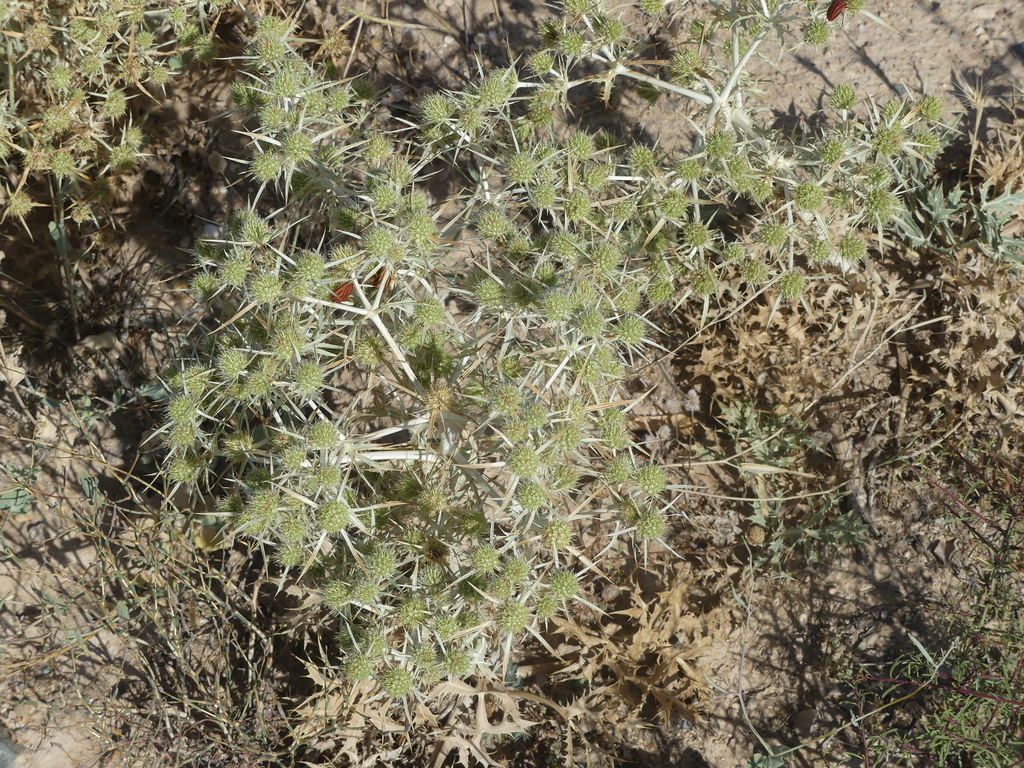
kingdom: Plantae
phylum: Tracheophyta
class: Magnoliopsida
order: Apiales
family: Apiaceae
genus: Eryngium
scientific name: Eryngium campestre
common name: Field eryngo
